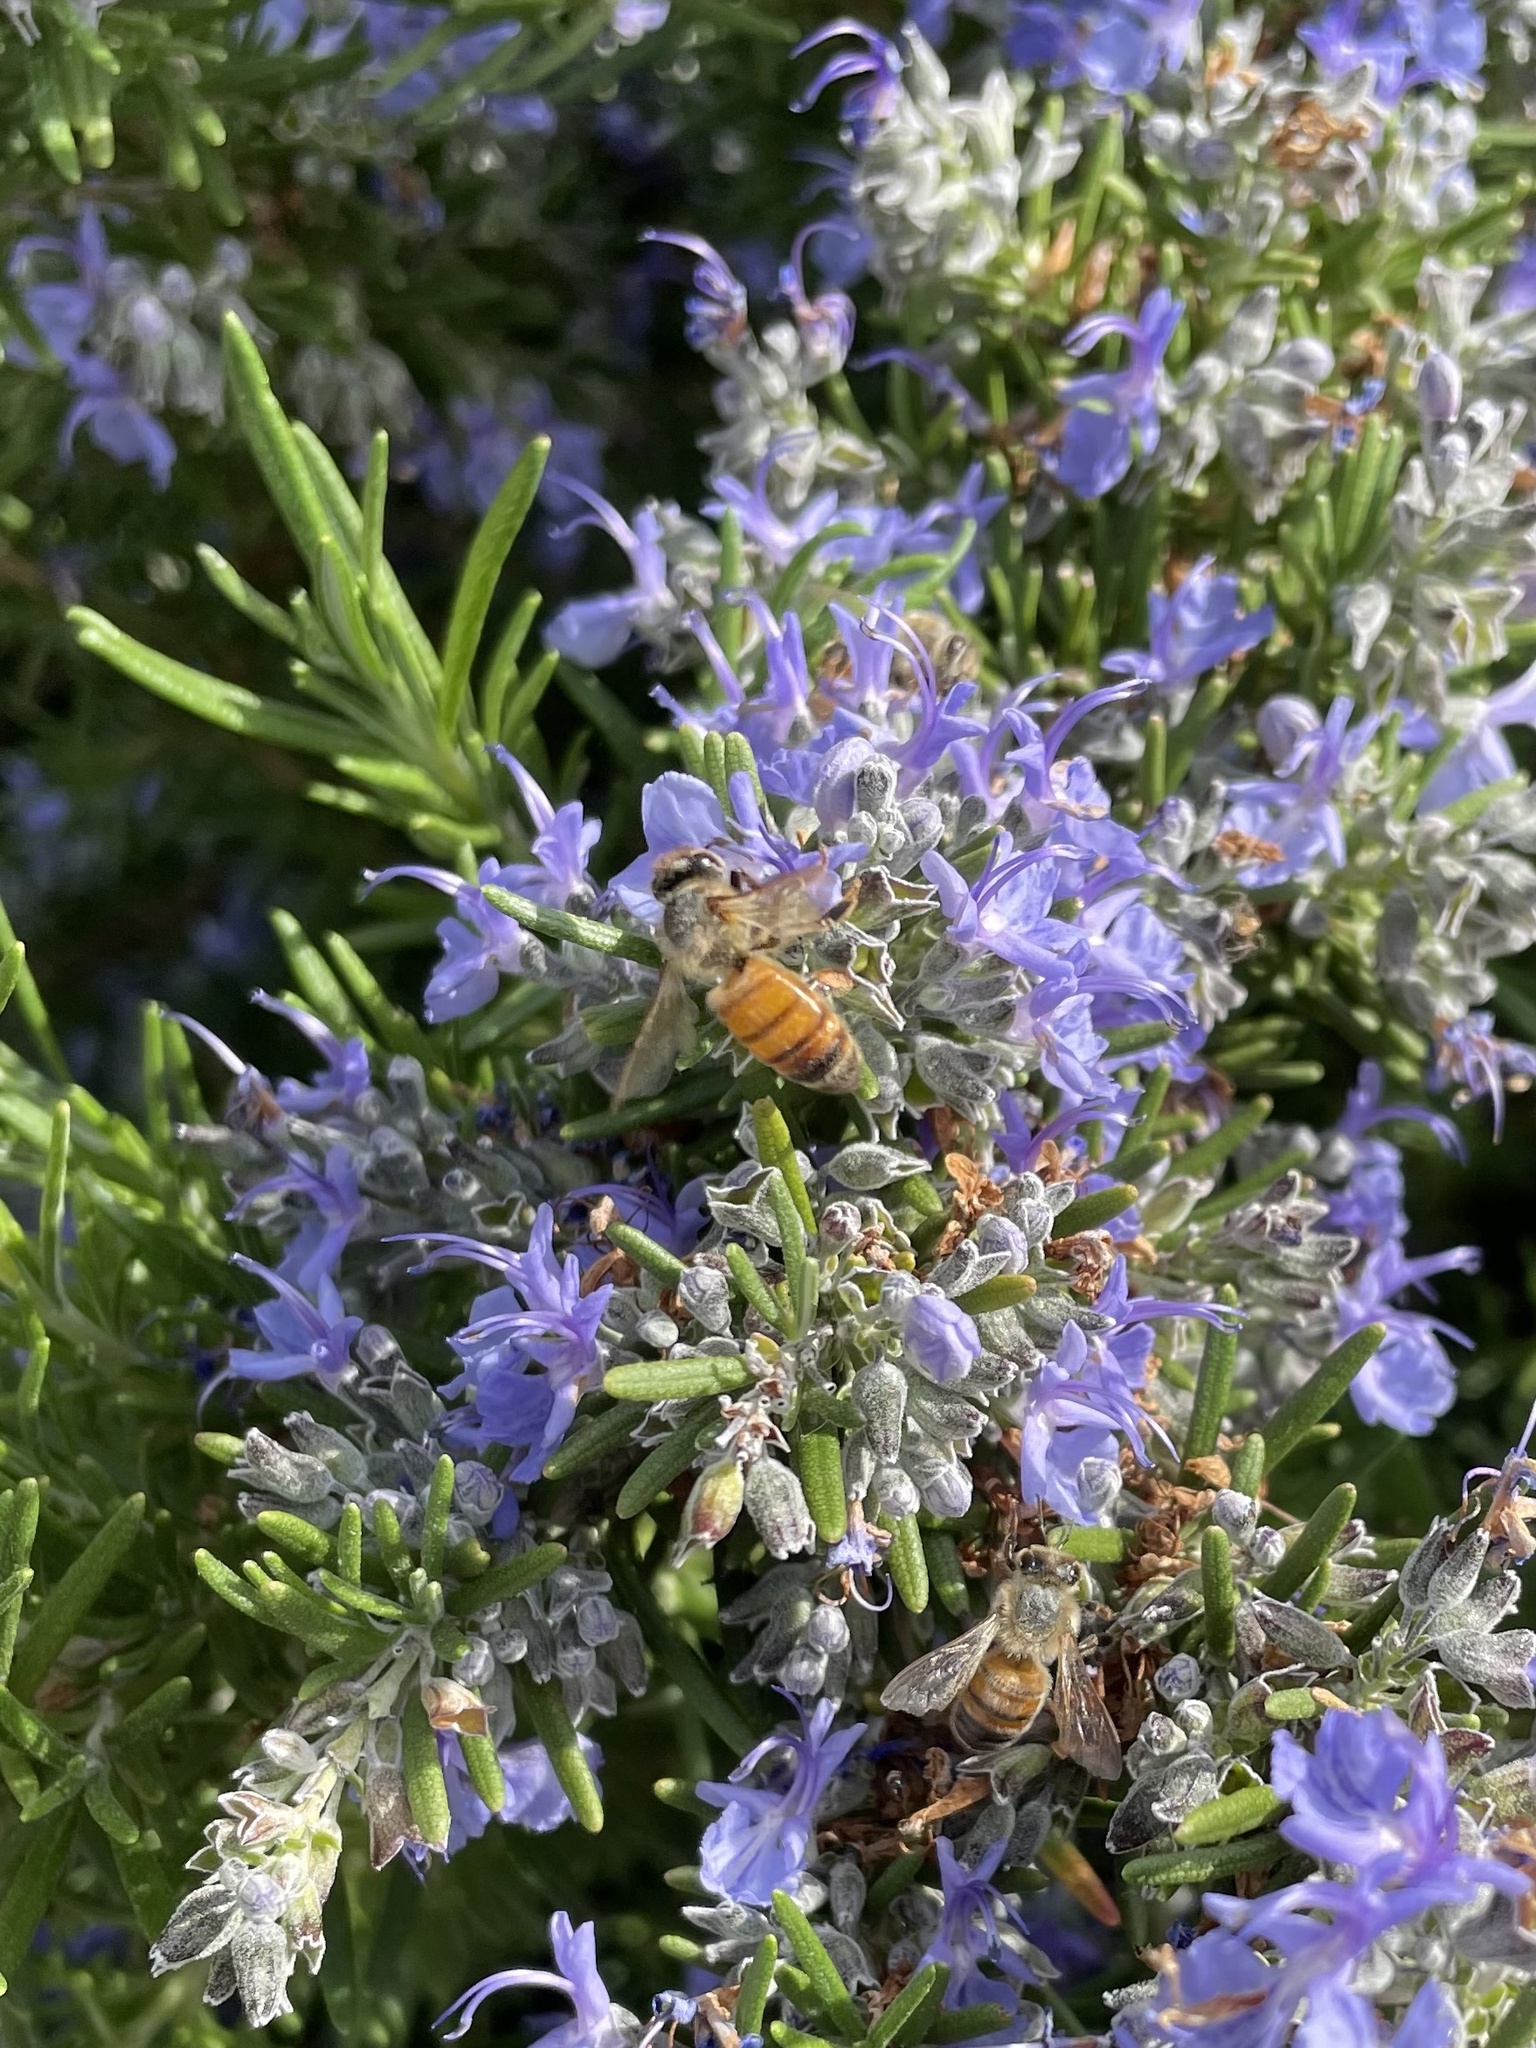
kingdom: Animalia
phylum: Arthropoda
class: Insecta
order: Hymenoptera
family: Apidae
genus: Apis
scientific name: Apis mellifera
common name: Honey bee
